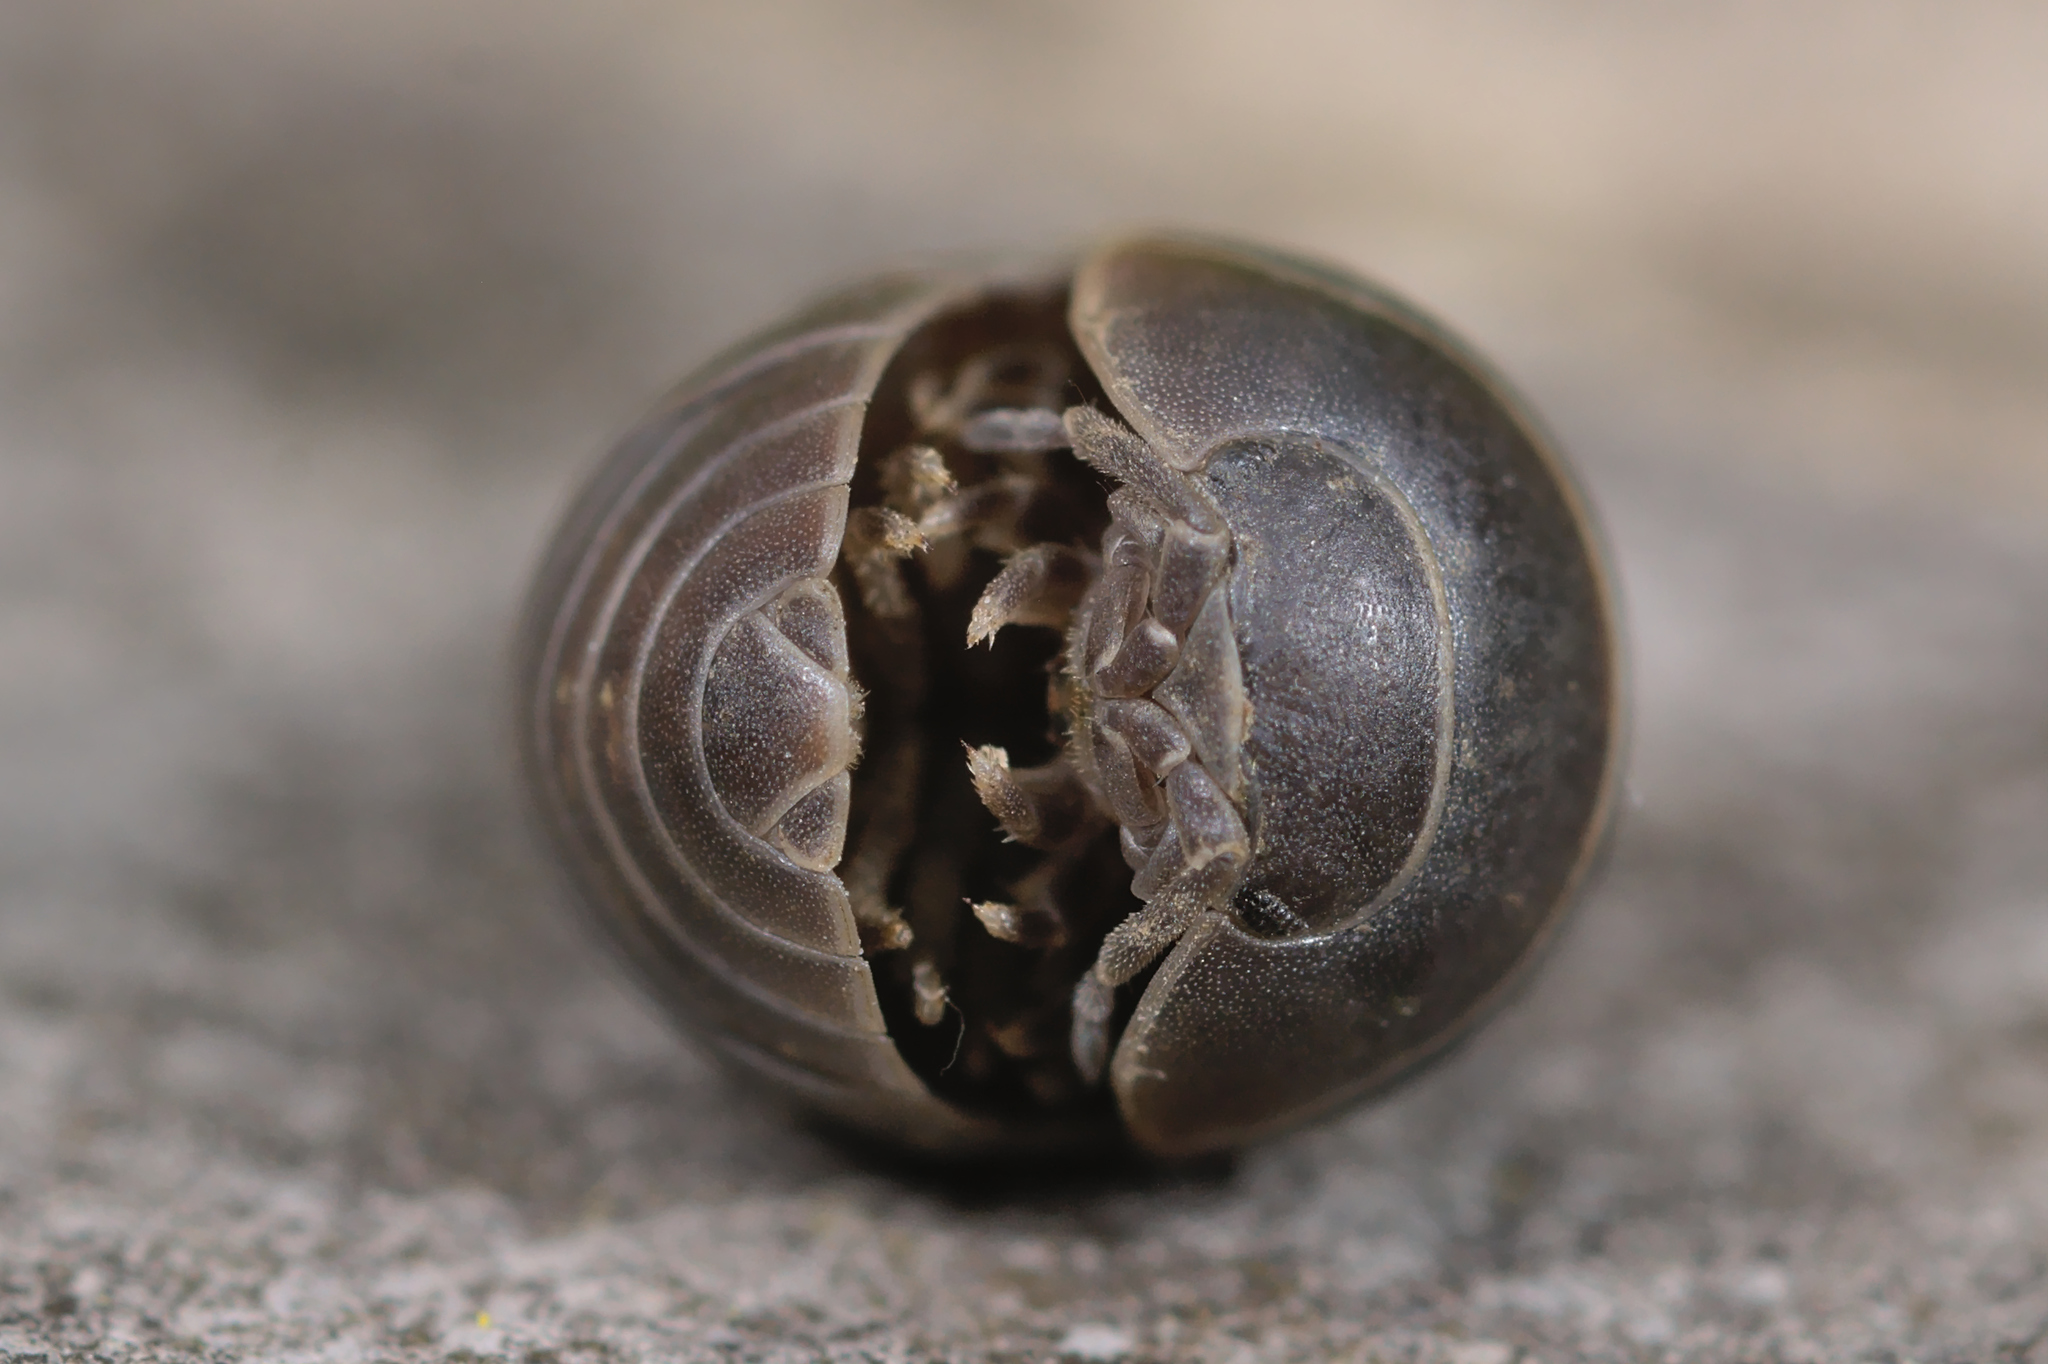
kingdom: Animalia
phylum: Arthropoda
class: Malacostraca
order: Isopoda
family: Armadillidiidae
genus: Armadillidium
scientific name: Armadillidium vulgare
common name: Common pill woodlouse
